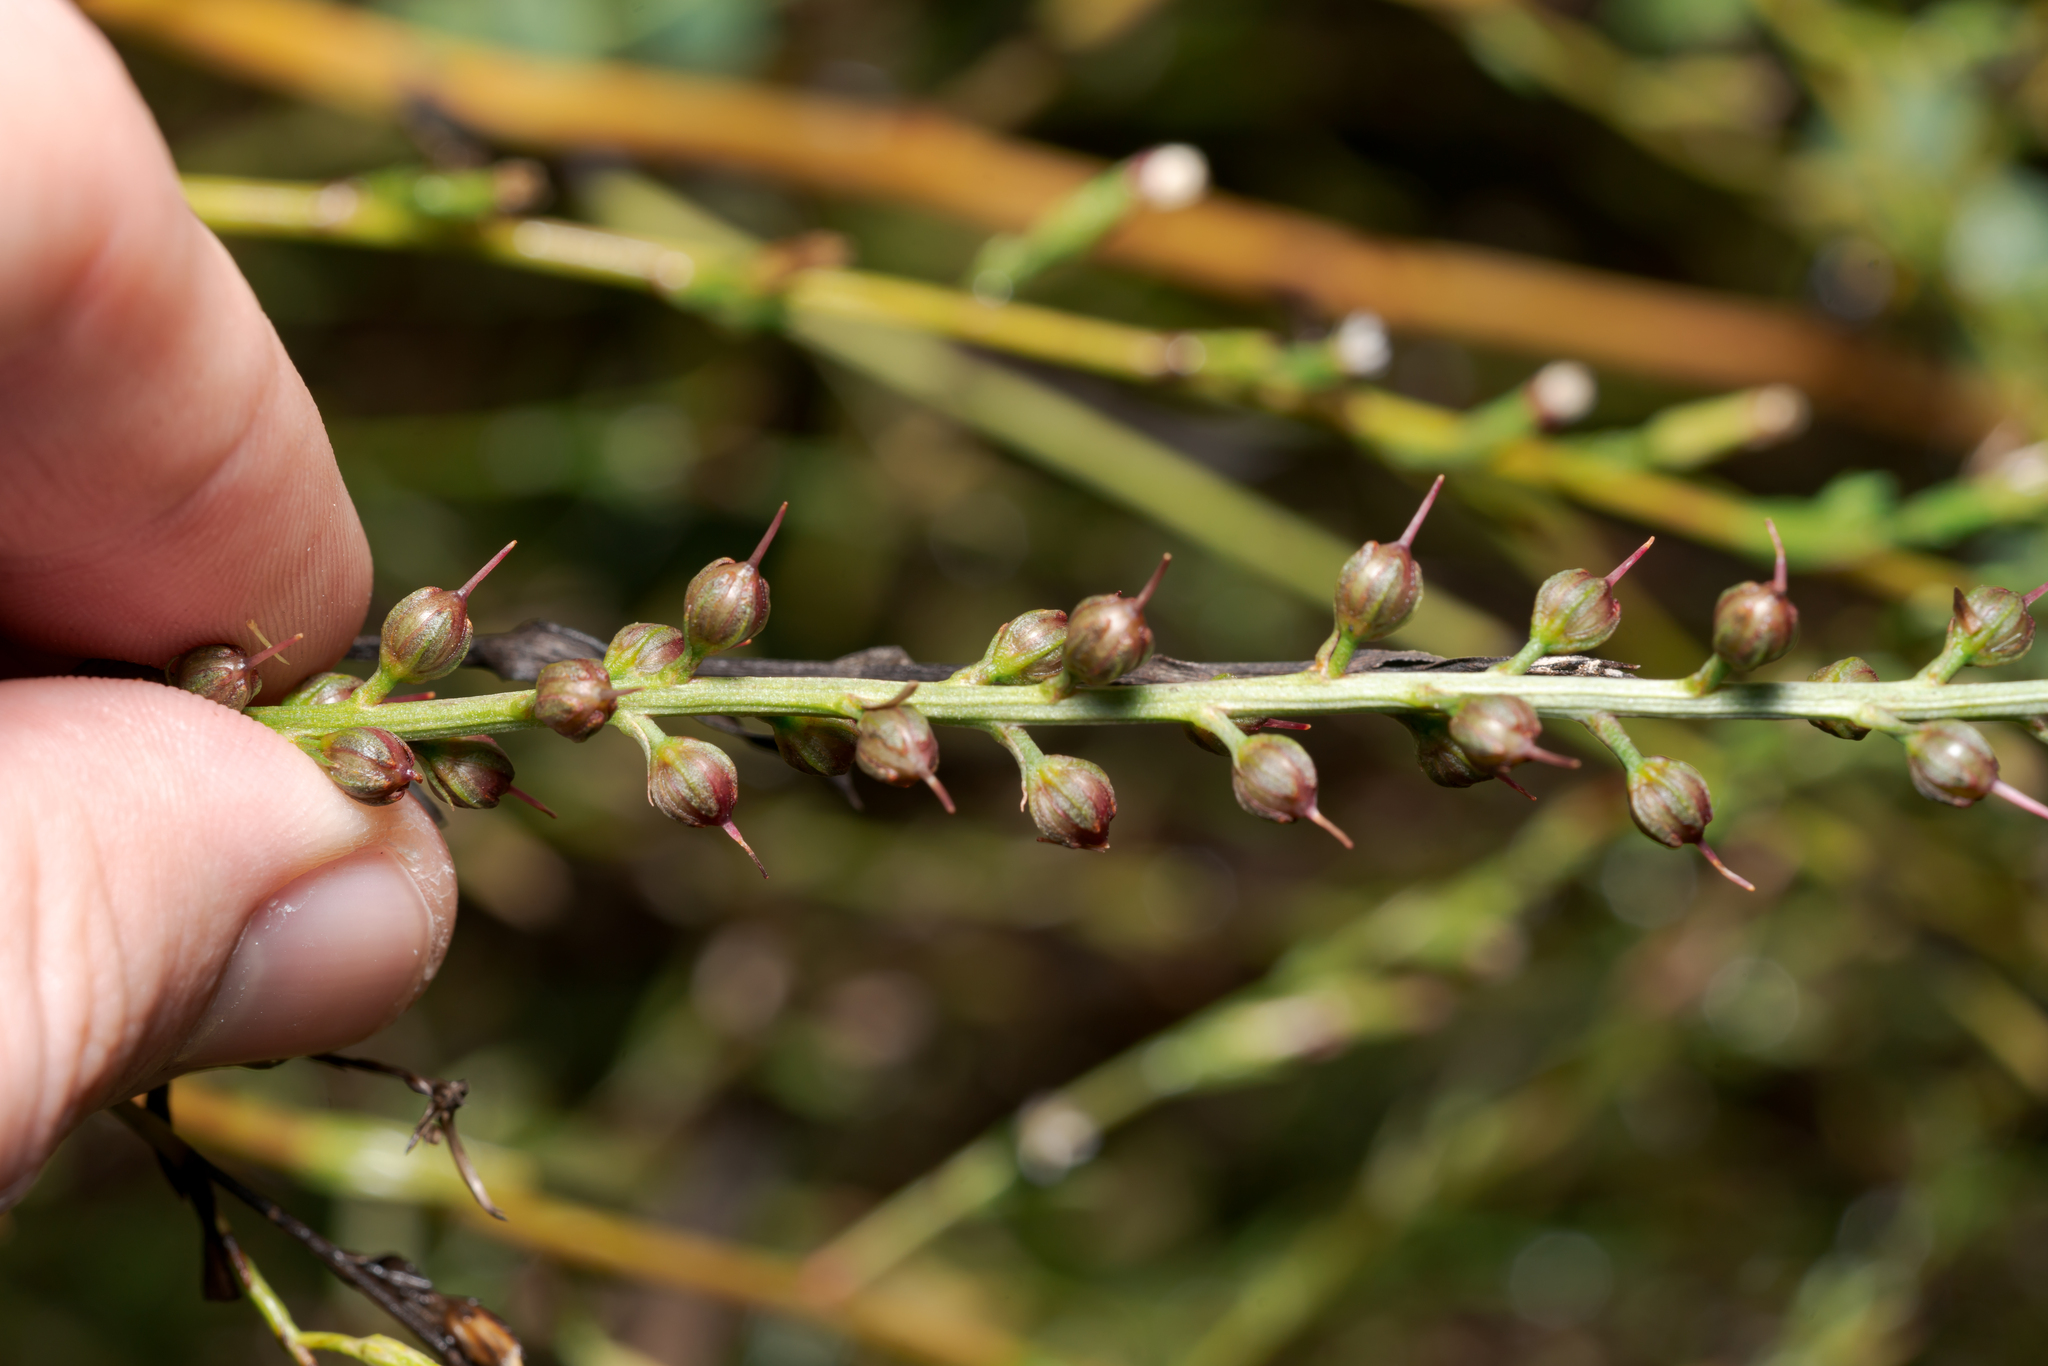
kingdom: Plantae
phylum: Tracheophyta
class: Magnoliopsida
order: Ericales
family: Primulaceae
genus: Lysimachia
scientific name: Lysimachia dubia
